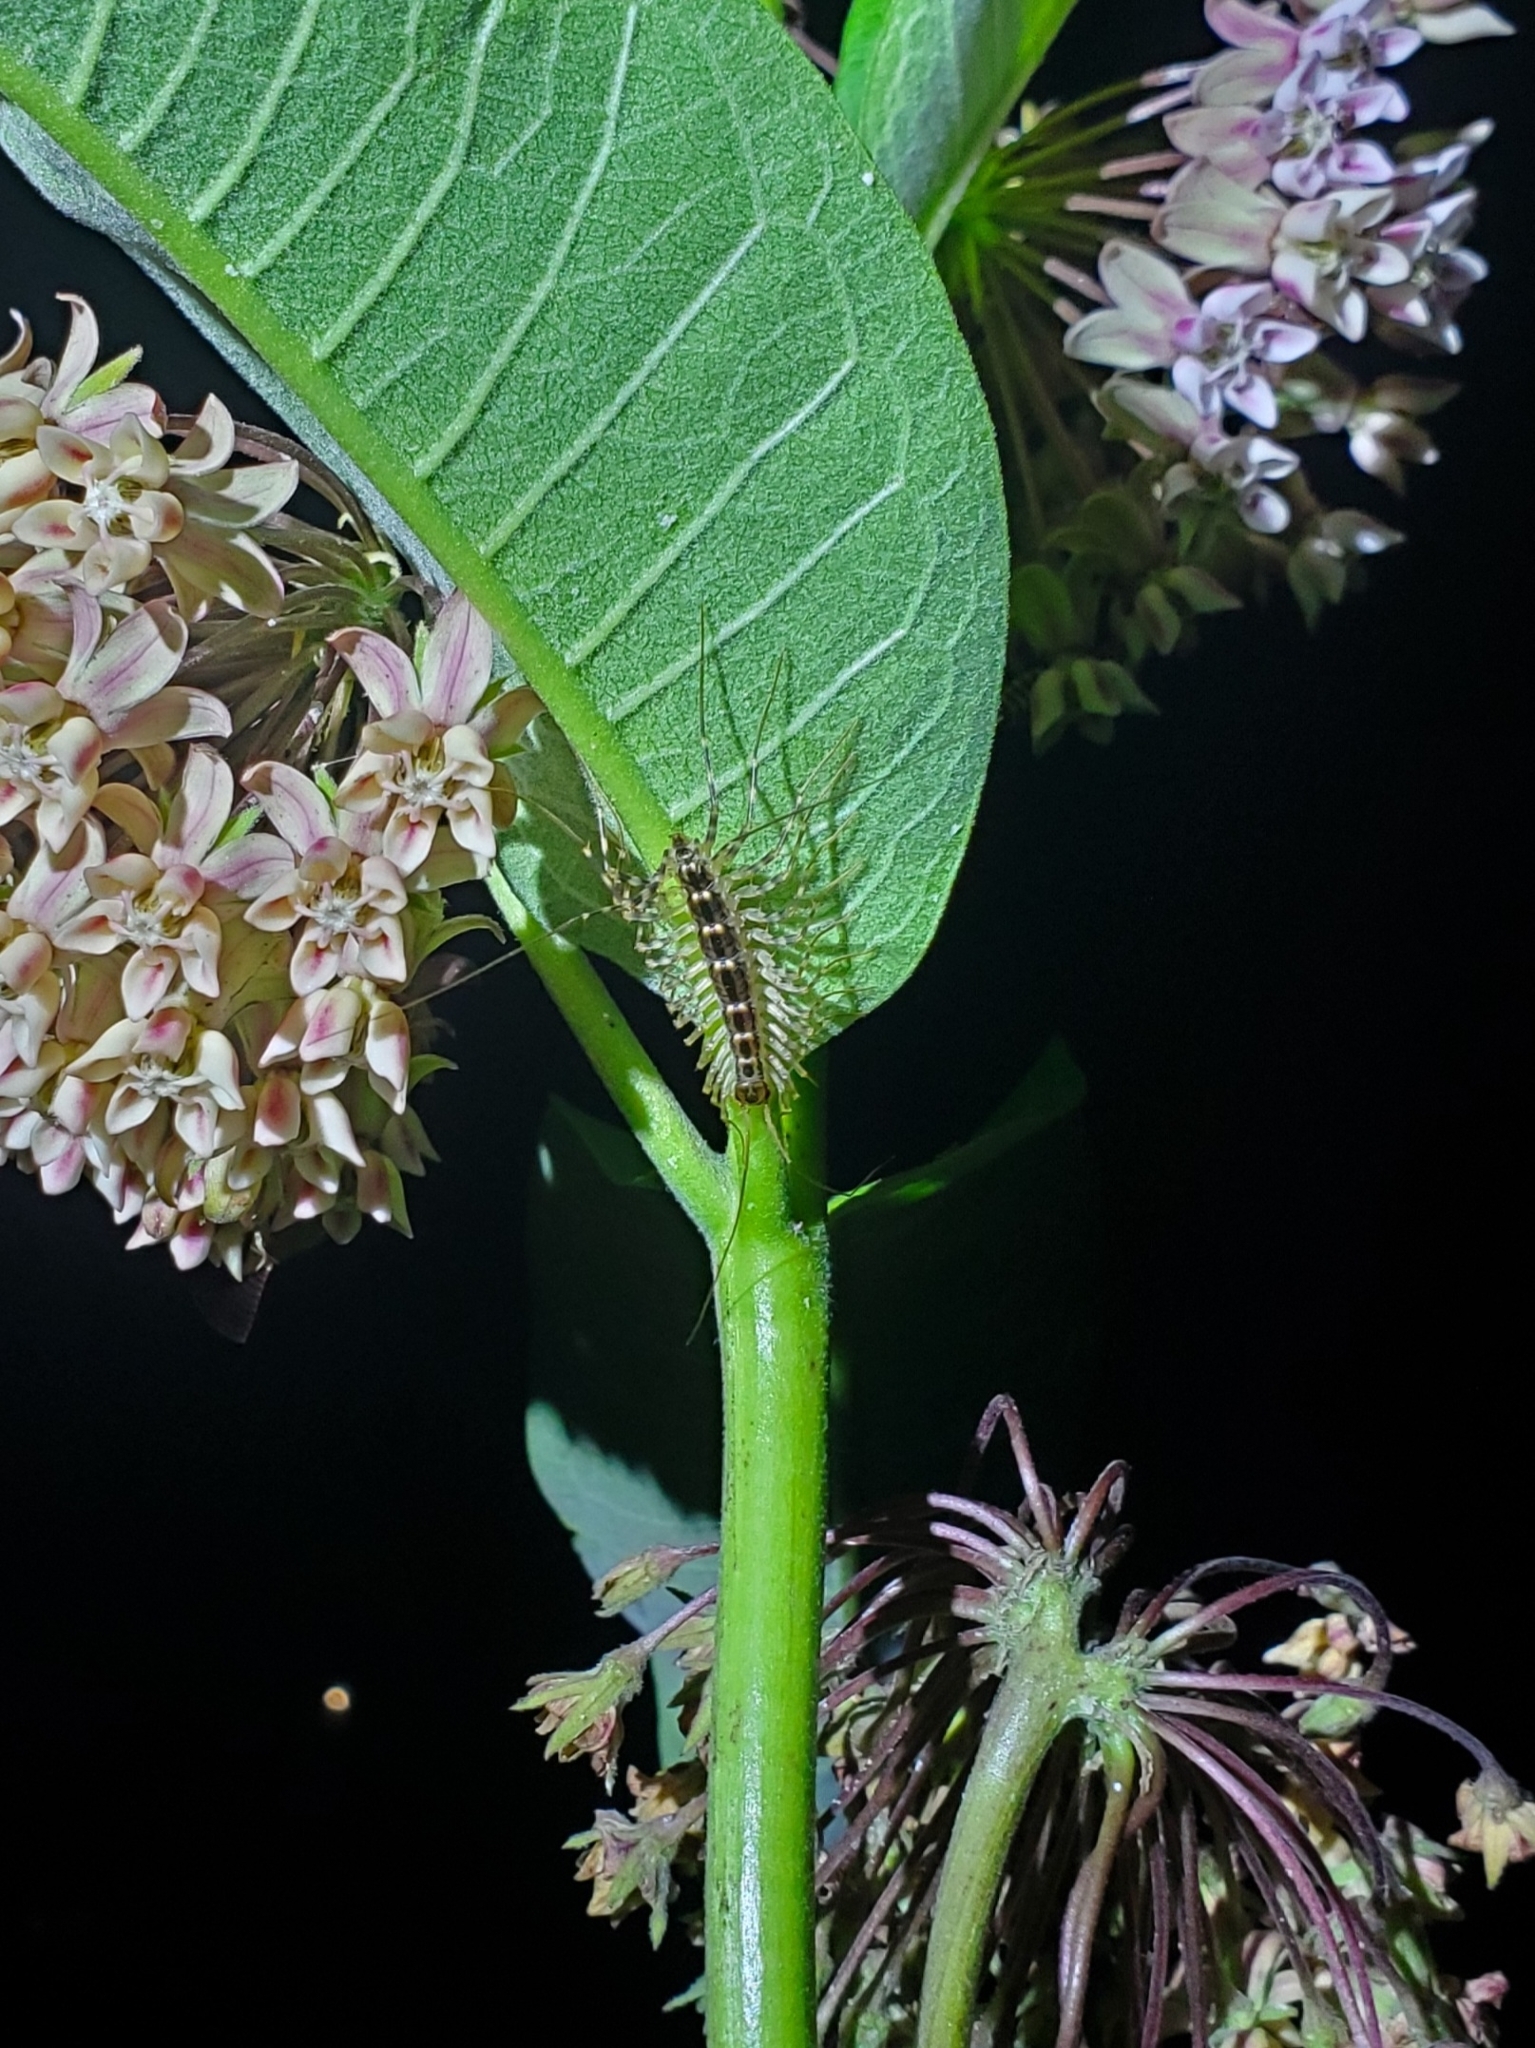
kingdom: Animalia
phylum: Arthropoda
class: Chilopoda
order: Scutigeromorpha
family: Scutigeridae
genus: Thereuonema
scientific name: Thereuonema tuberculata
